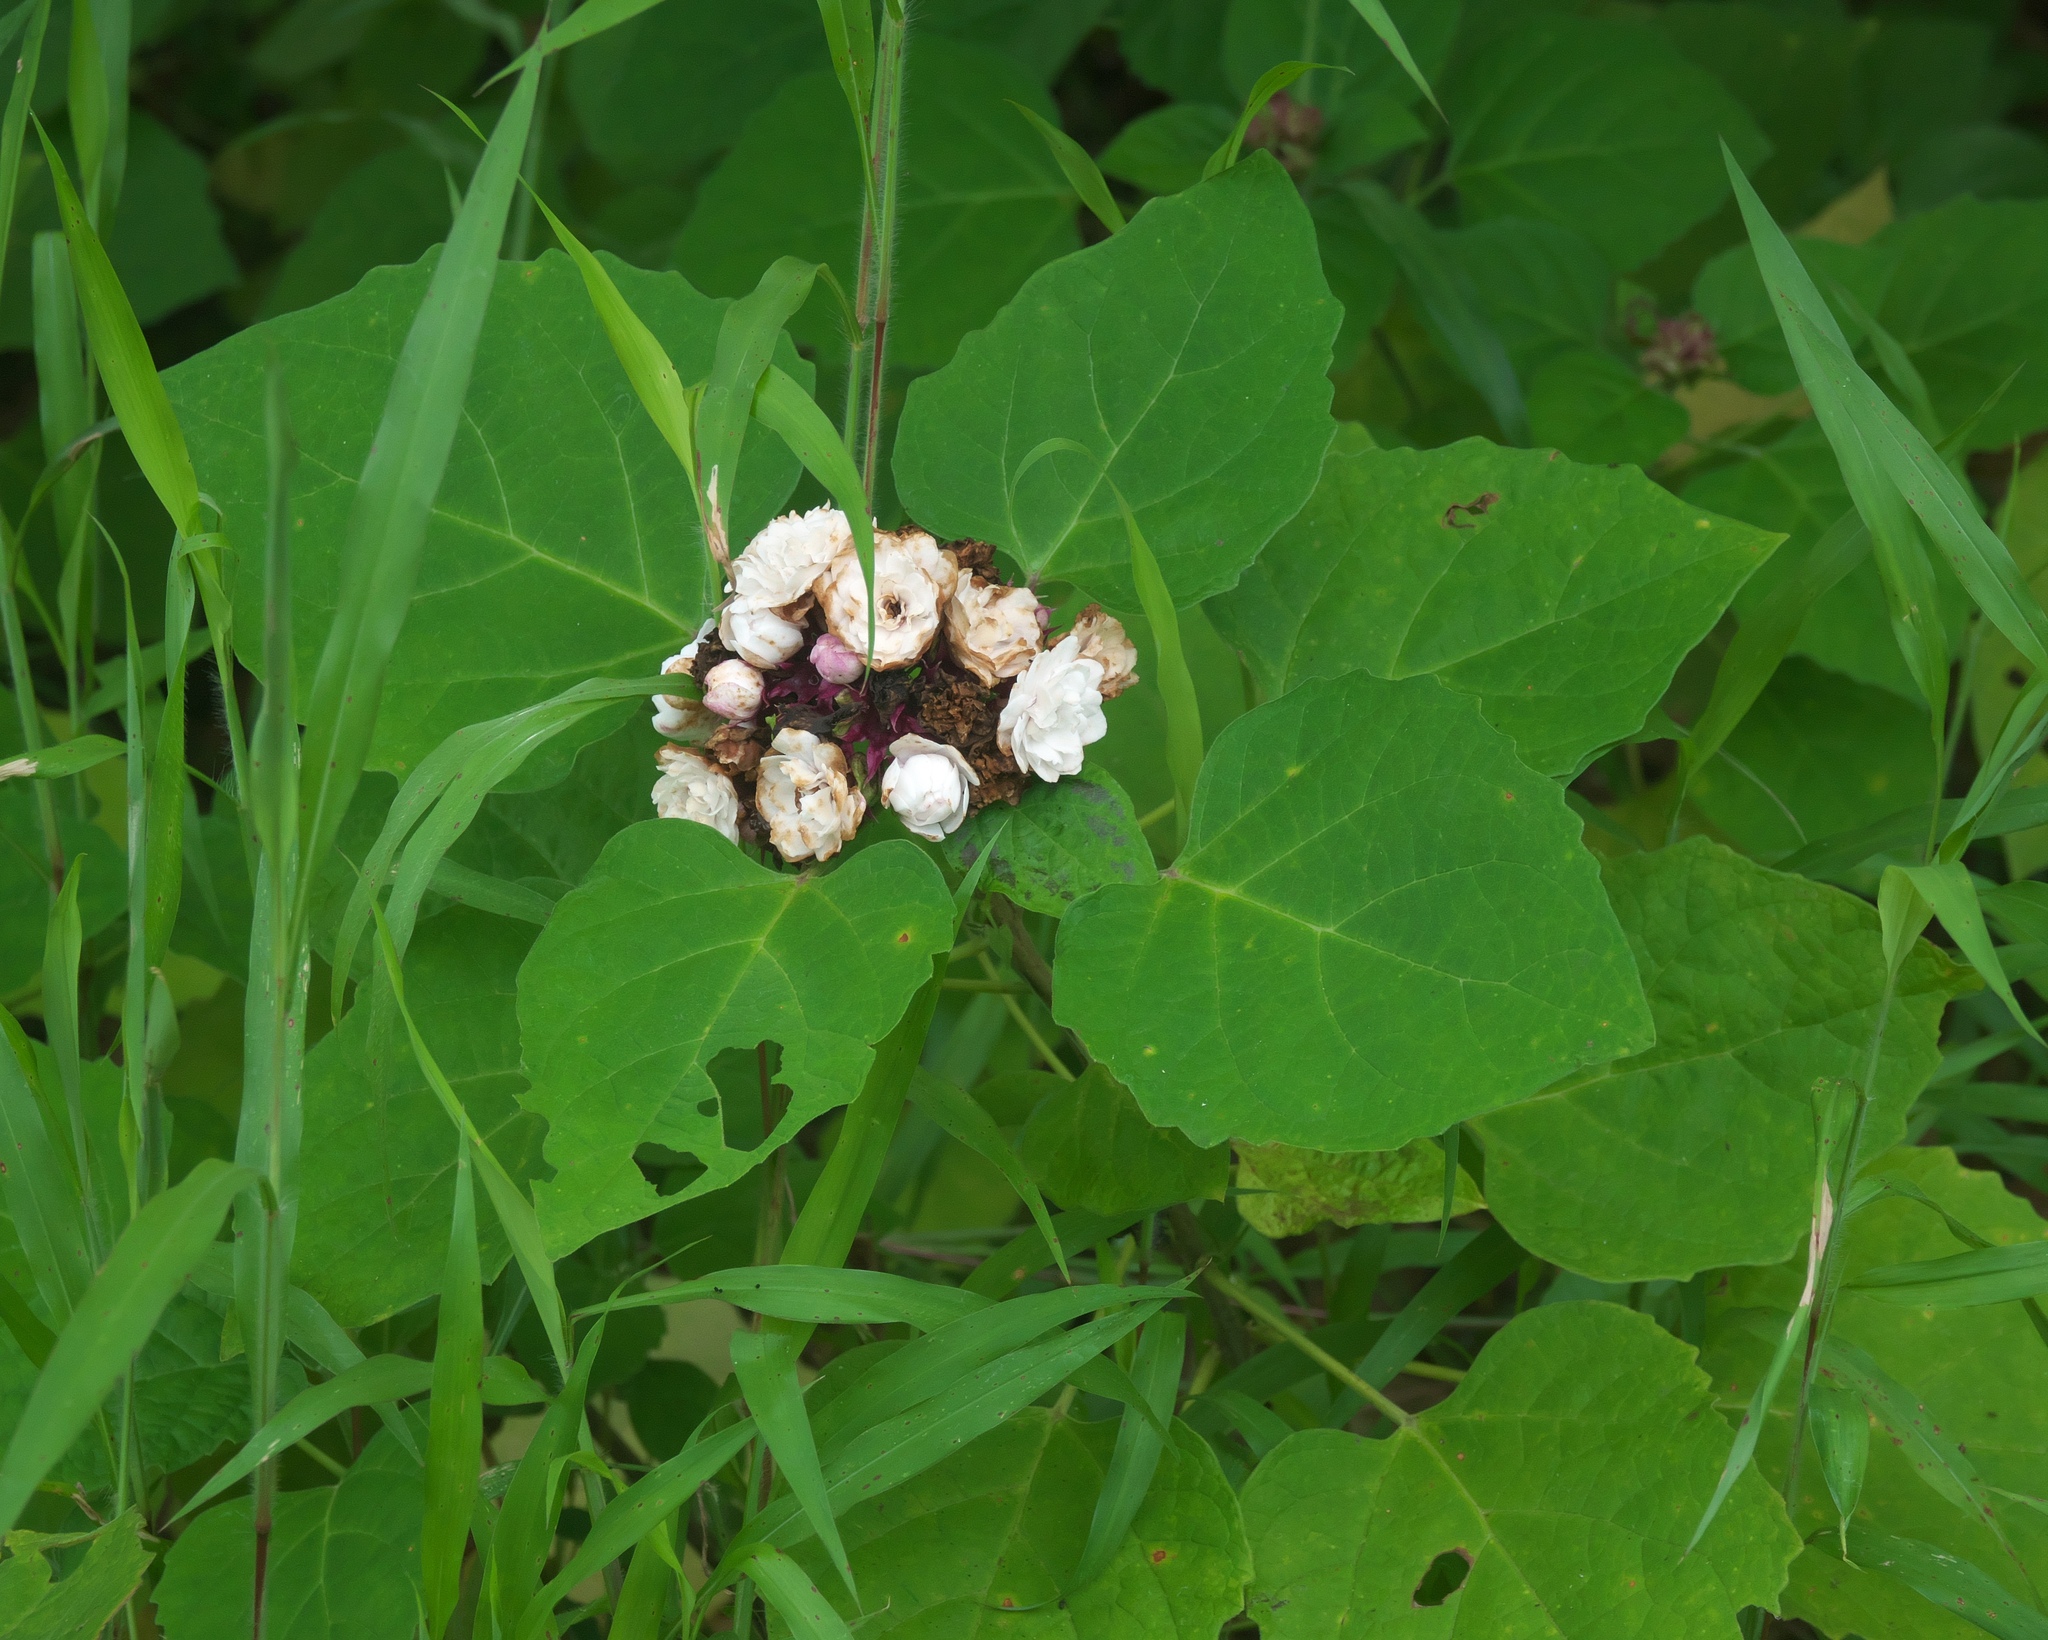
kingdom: Plantae
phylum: Tracheophyta
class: Magnoliopsida
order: Lamiales
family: Lamiaceae
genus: Clerodendrum
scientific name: Clerodendrum chinense
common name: Stickbush
